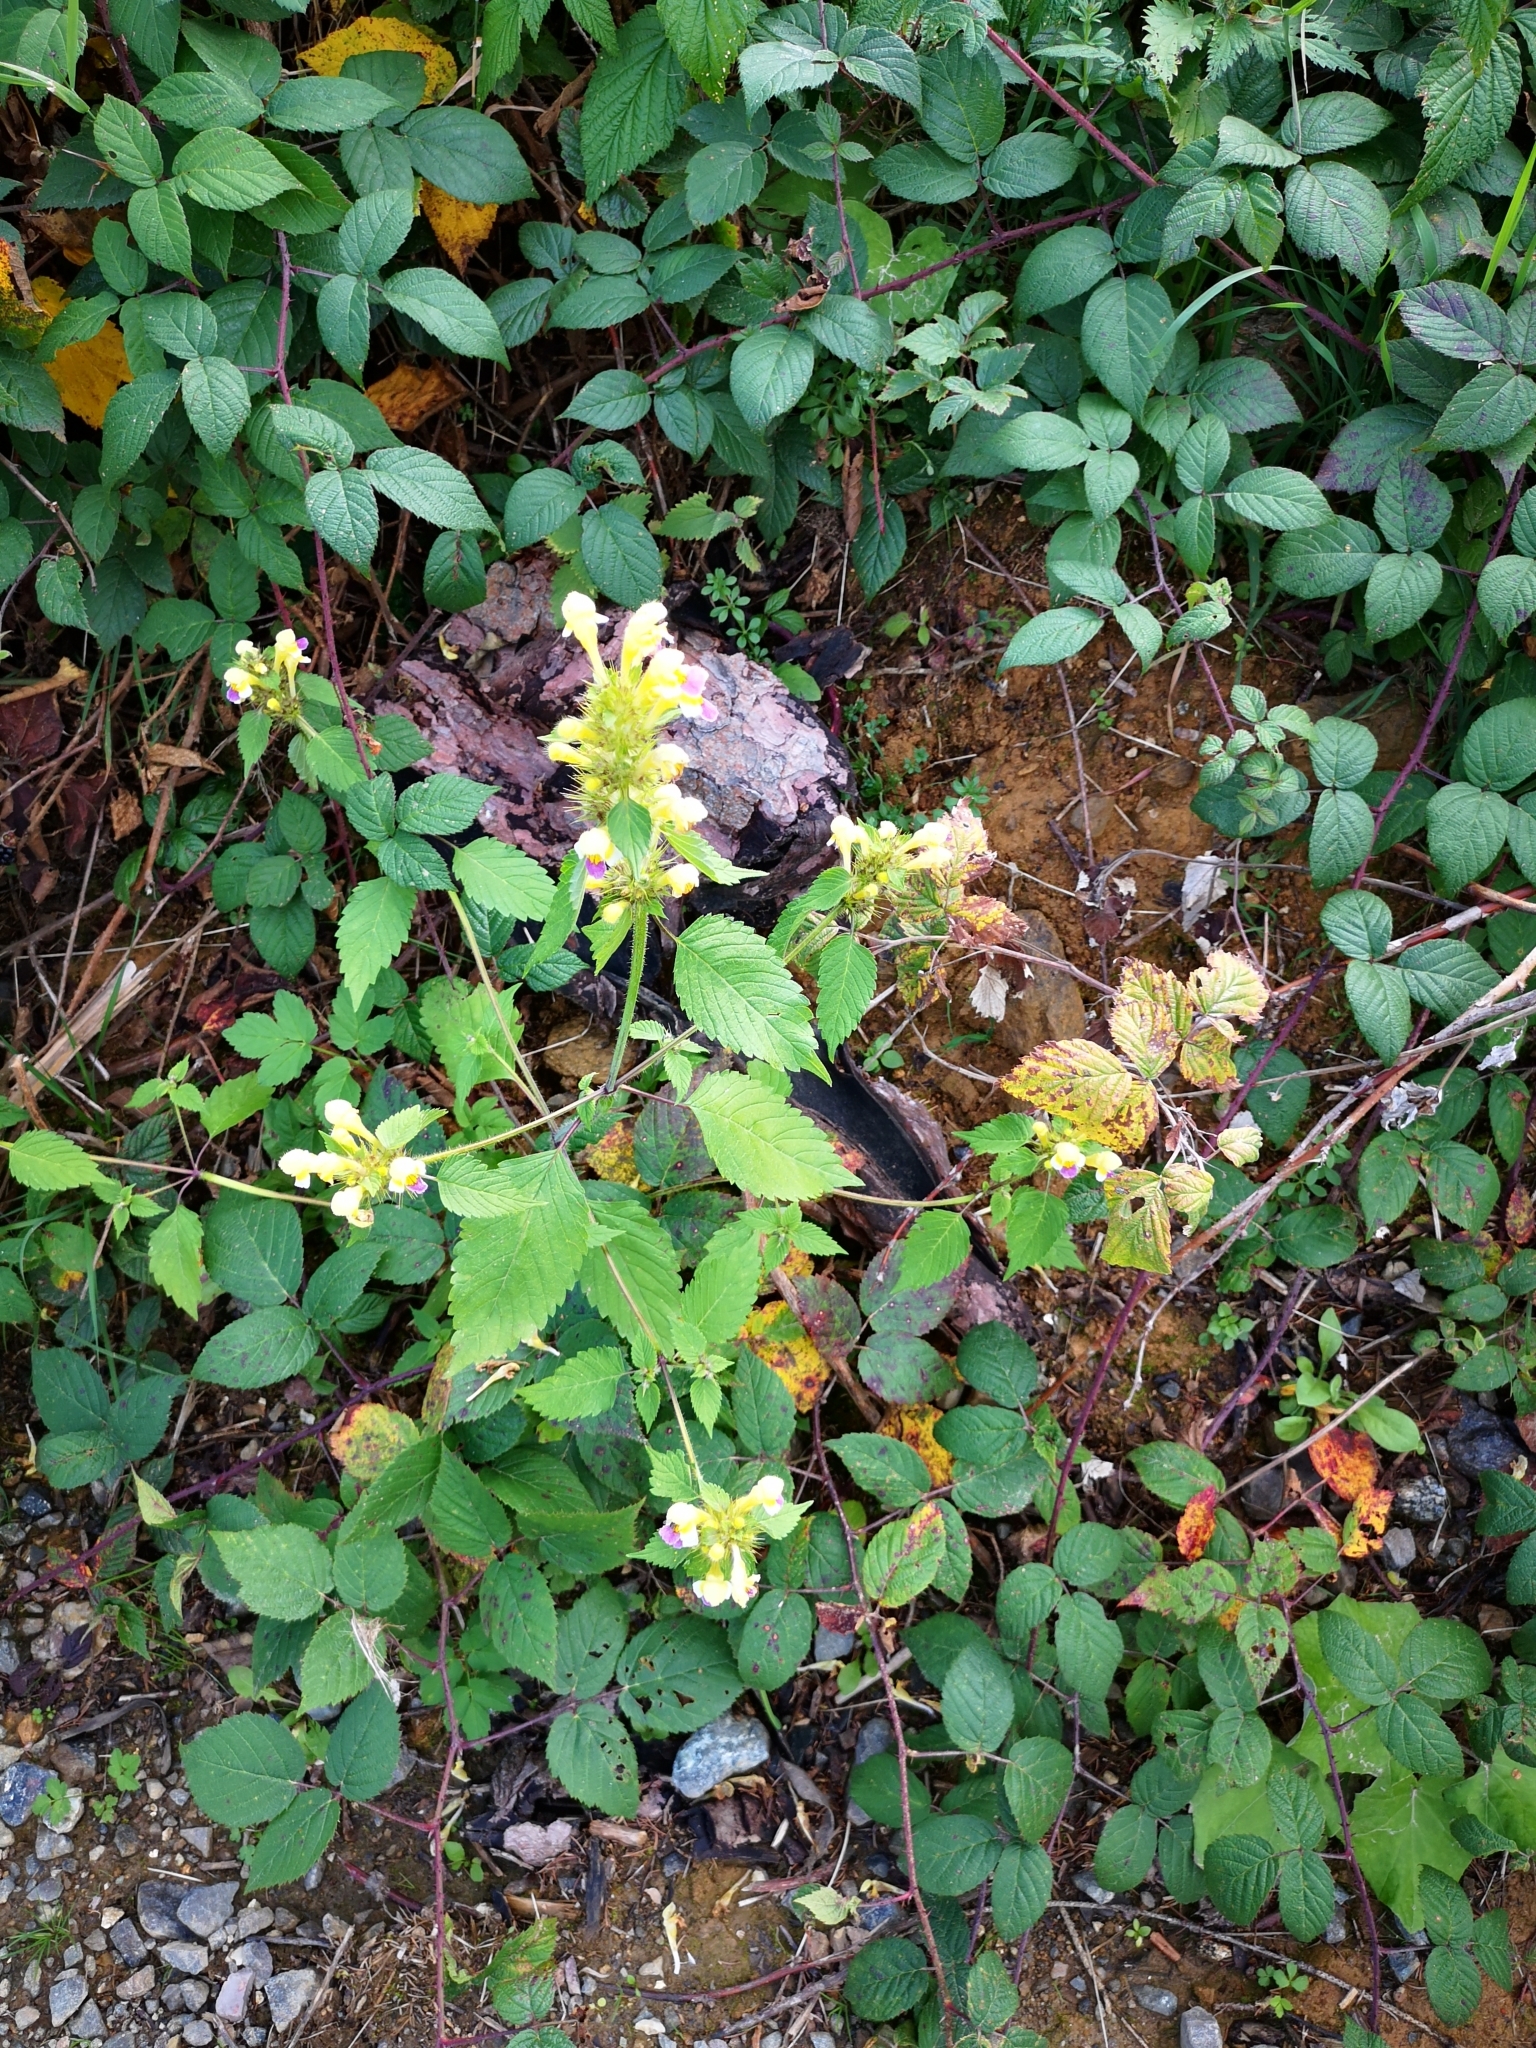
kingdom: Plantae
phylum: Tracheophyta
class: Magnoliopsida
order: Lamiales
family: Lamiaceae
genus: Galeopsis
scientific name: Galeopsis speciosa
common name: Large-flowered hemp-nettle
